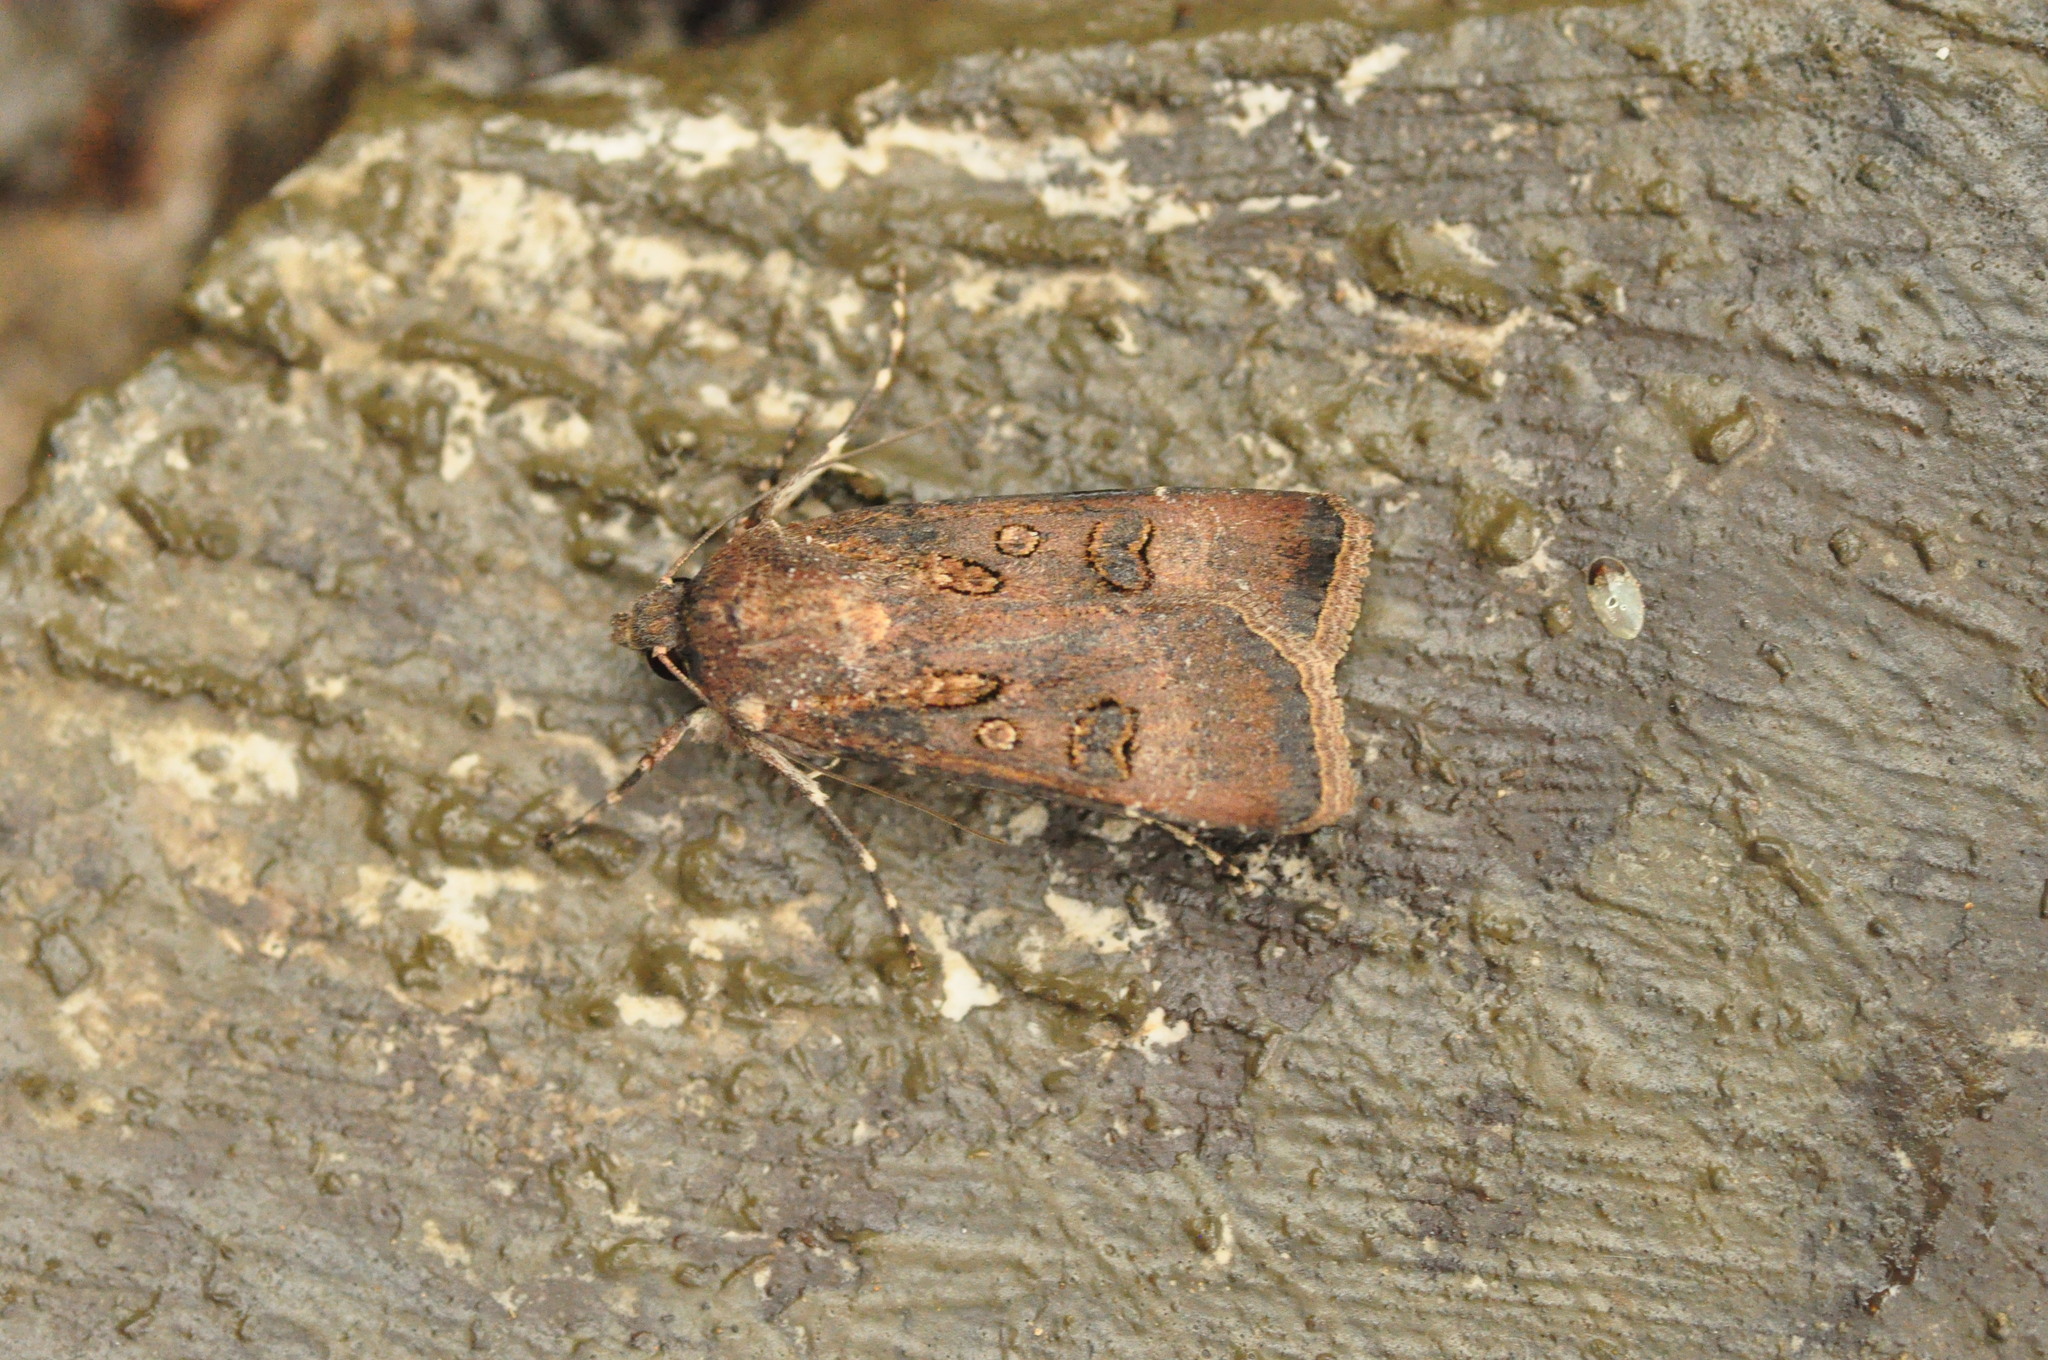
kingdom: Animalia
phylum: Arthropoda
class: Insecta
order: Lepidoptera
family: Noctuidae
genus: Agrotis
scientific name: Agrotis trux
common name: Crescent dart
